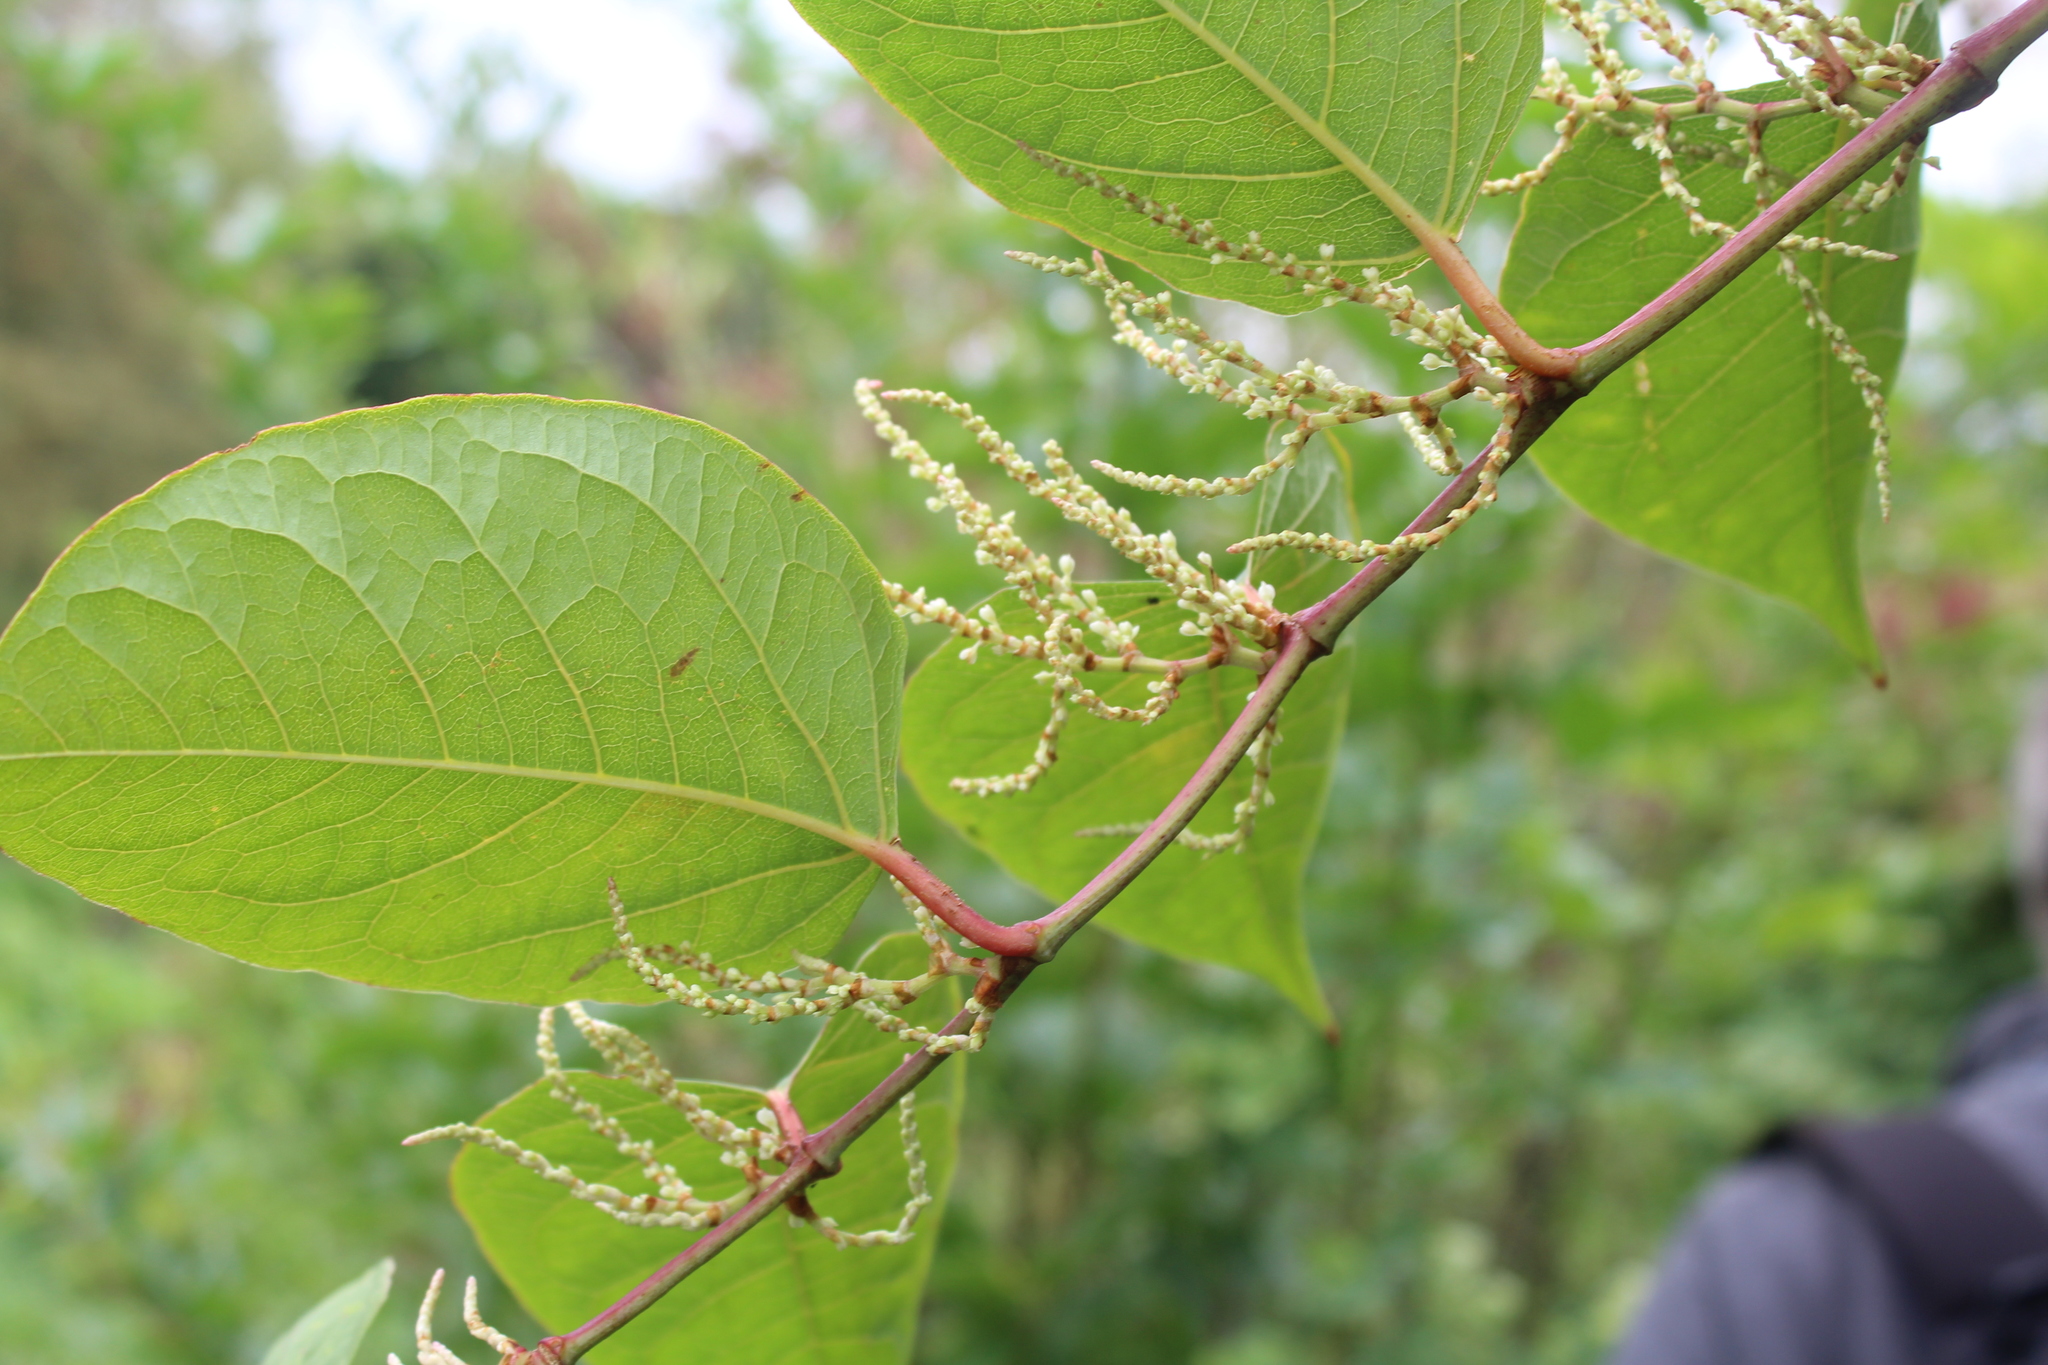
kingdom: Plantae
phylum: Tracheophyta
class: Magnoliopsida
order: Caryophyllales
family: Polygonaceae
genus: Reynoutria
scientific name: Reynoutria japonica
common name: Japanese knotweed
